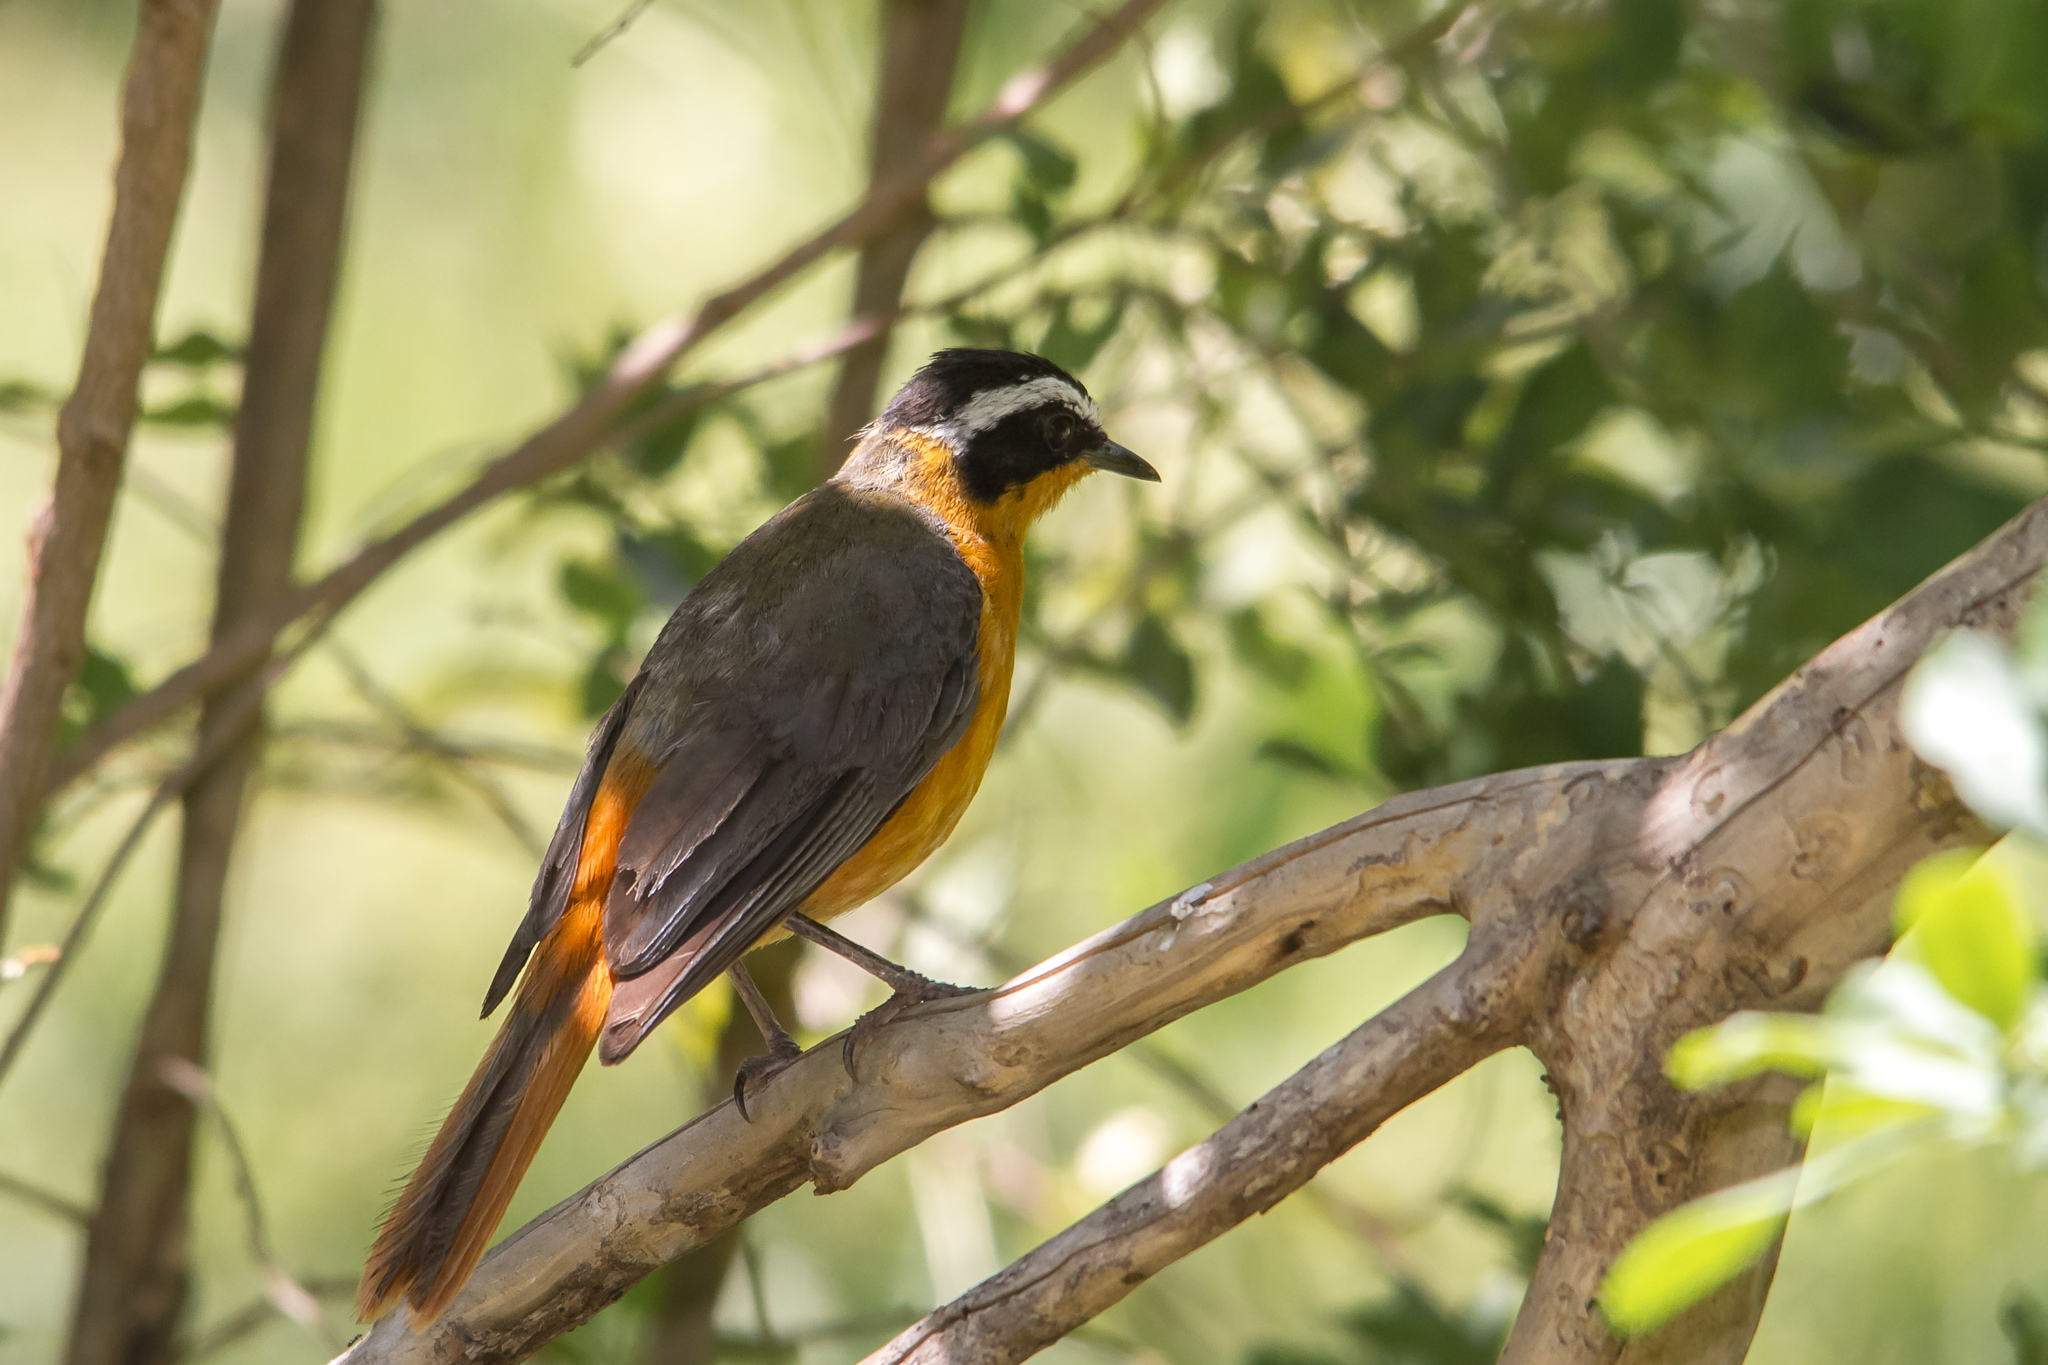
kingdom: Animalia
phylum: Chordata
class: Aves
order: Passeriformes
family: Muscicapidae
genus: Cossypha
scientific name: Cossypha heuglini
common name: White-browed robin-chat
